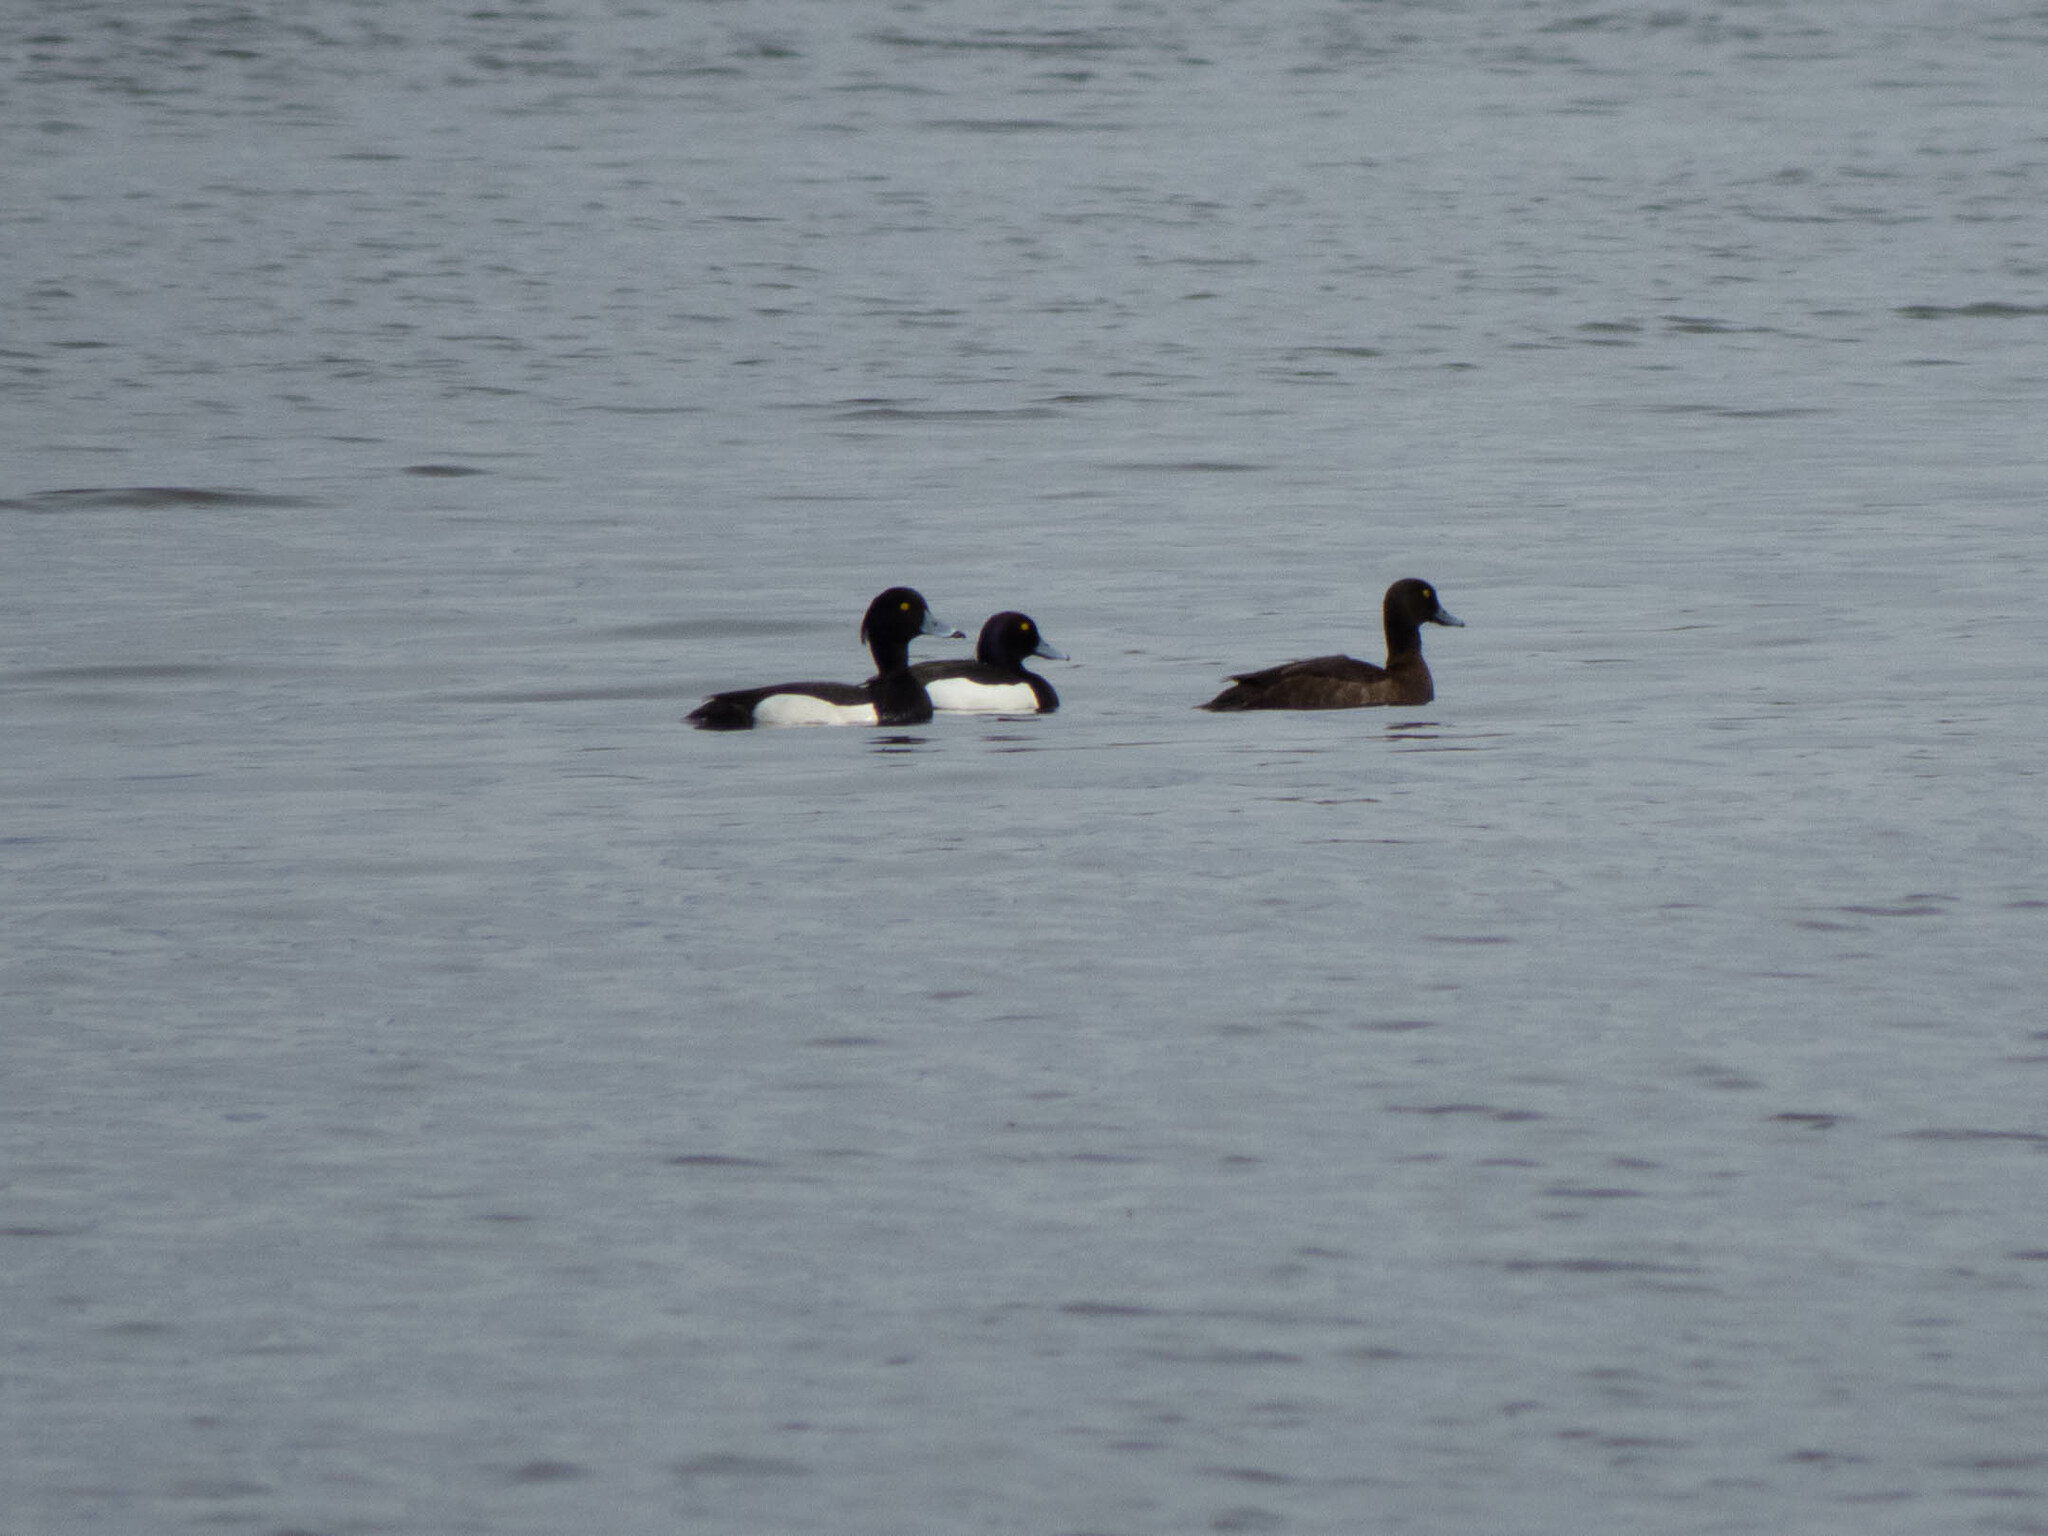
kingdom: Animalia
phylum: Chordata
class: Aves
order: Anseriformes
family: Anatidae
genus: Aythya
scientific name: Aythya fuligula
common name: Tufted duck
